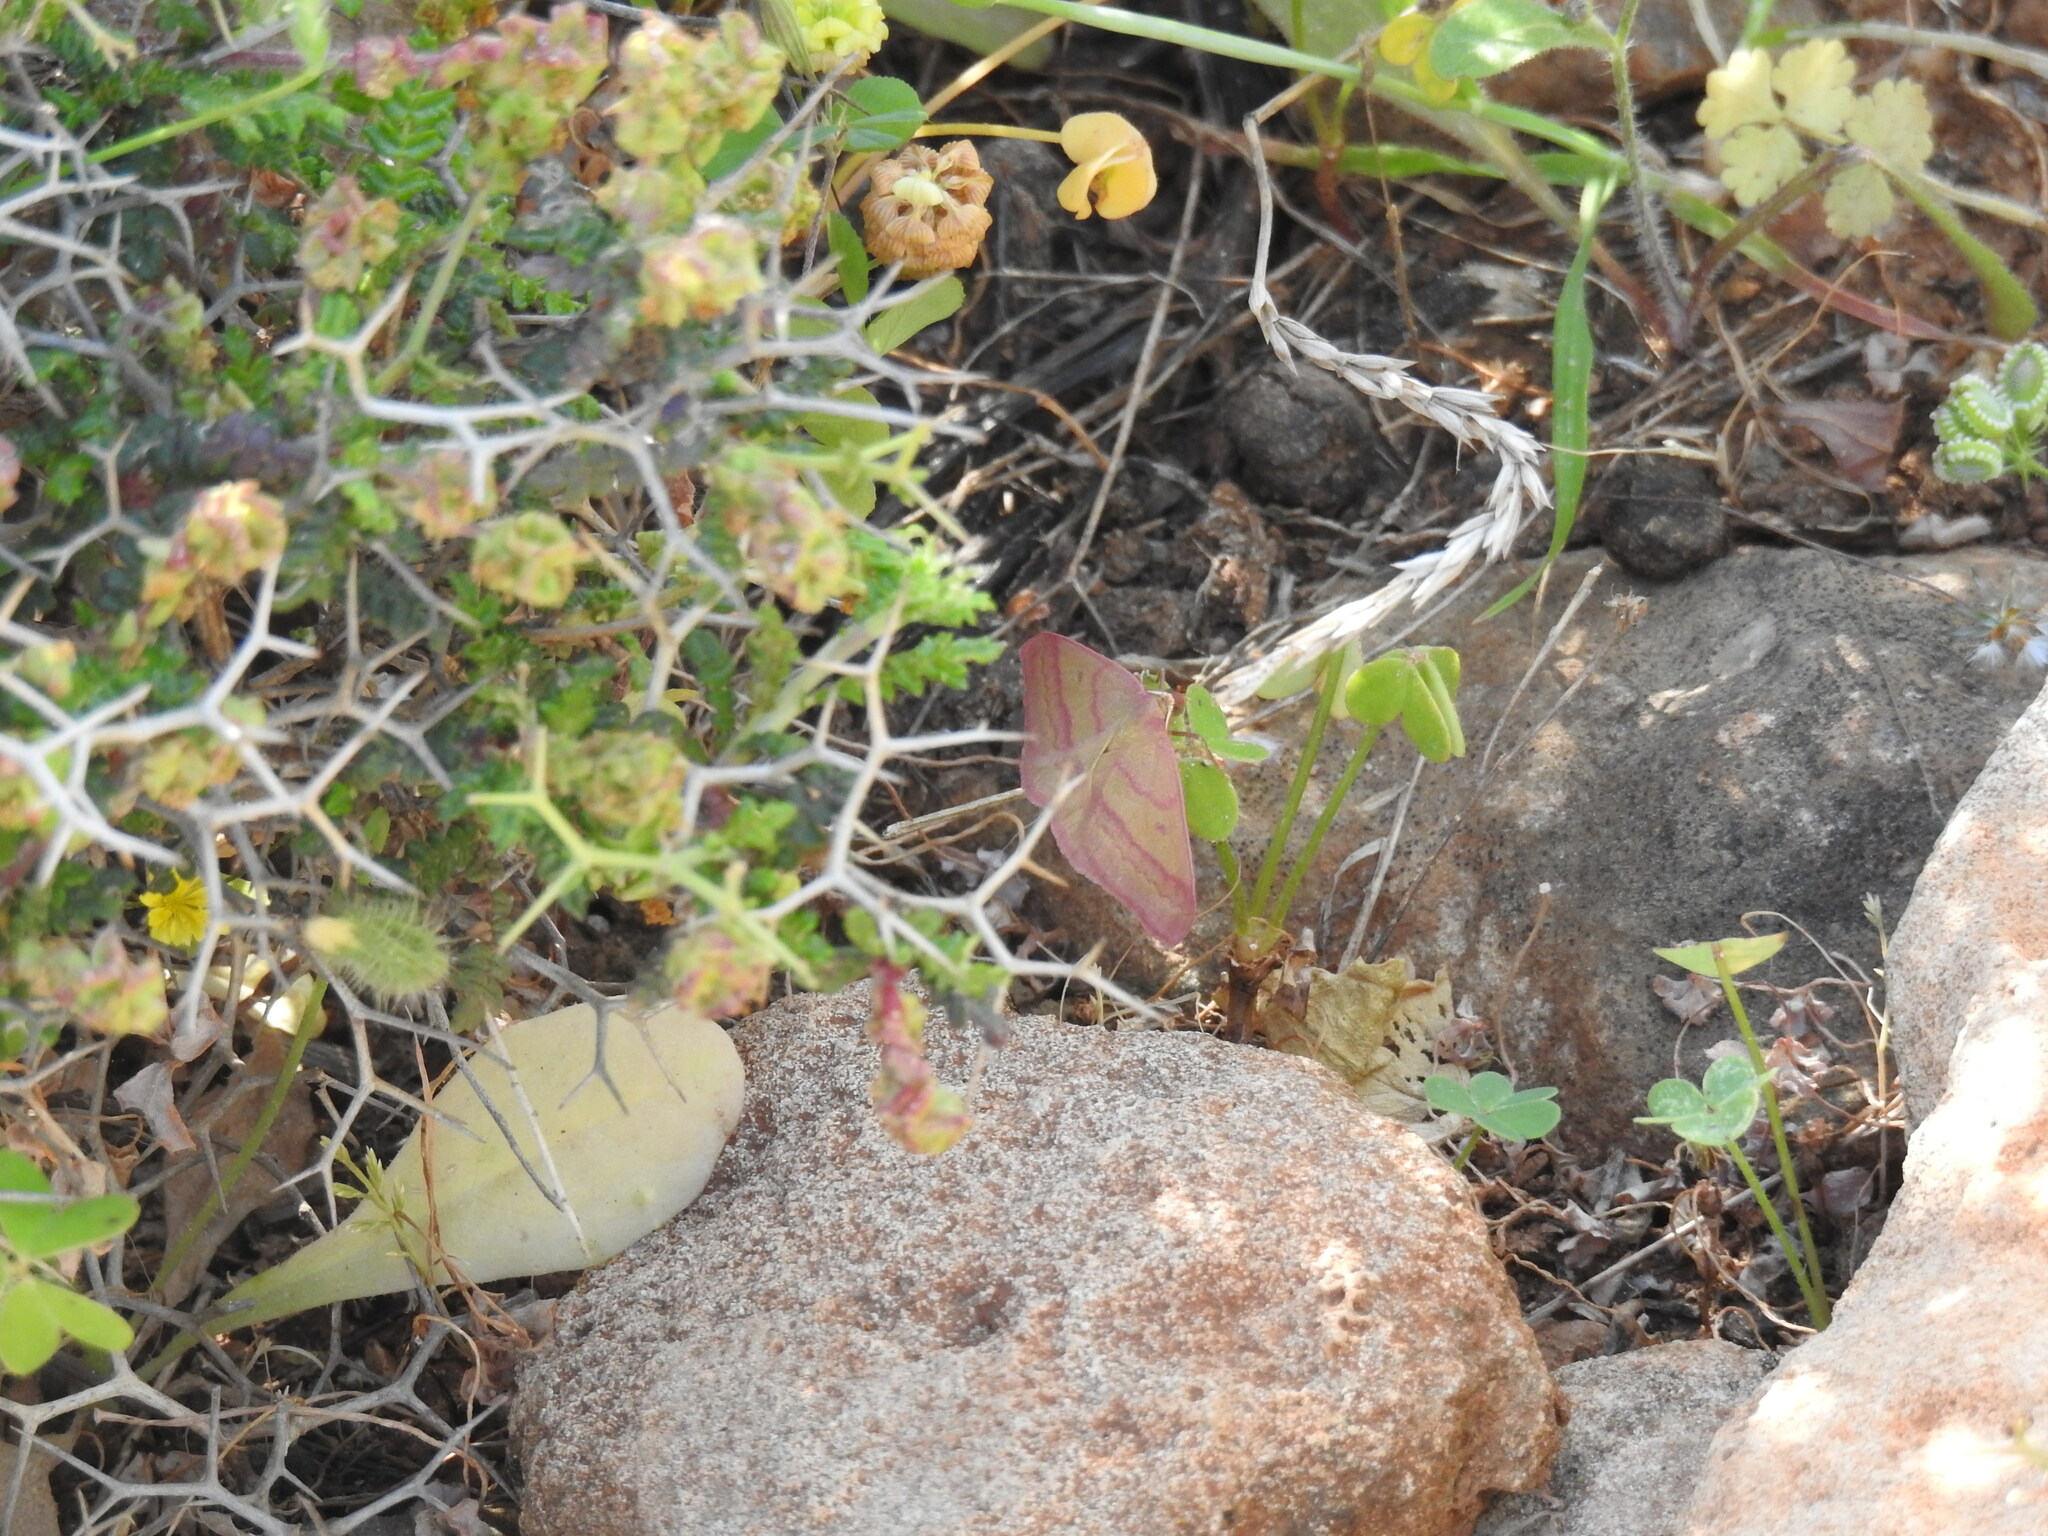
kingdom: Animalia
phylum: Arthropoda
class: Insecta
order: Lepidoptera
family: Geometridae
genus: Rhodostrophia
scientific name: Rhodostrophia cretacaria
